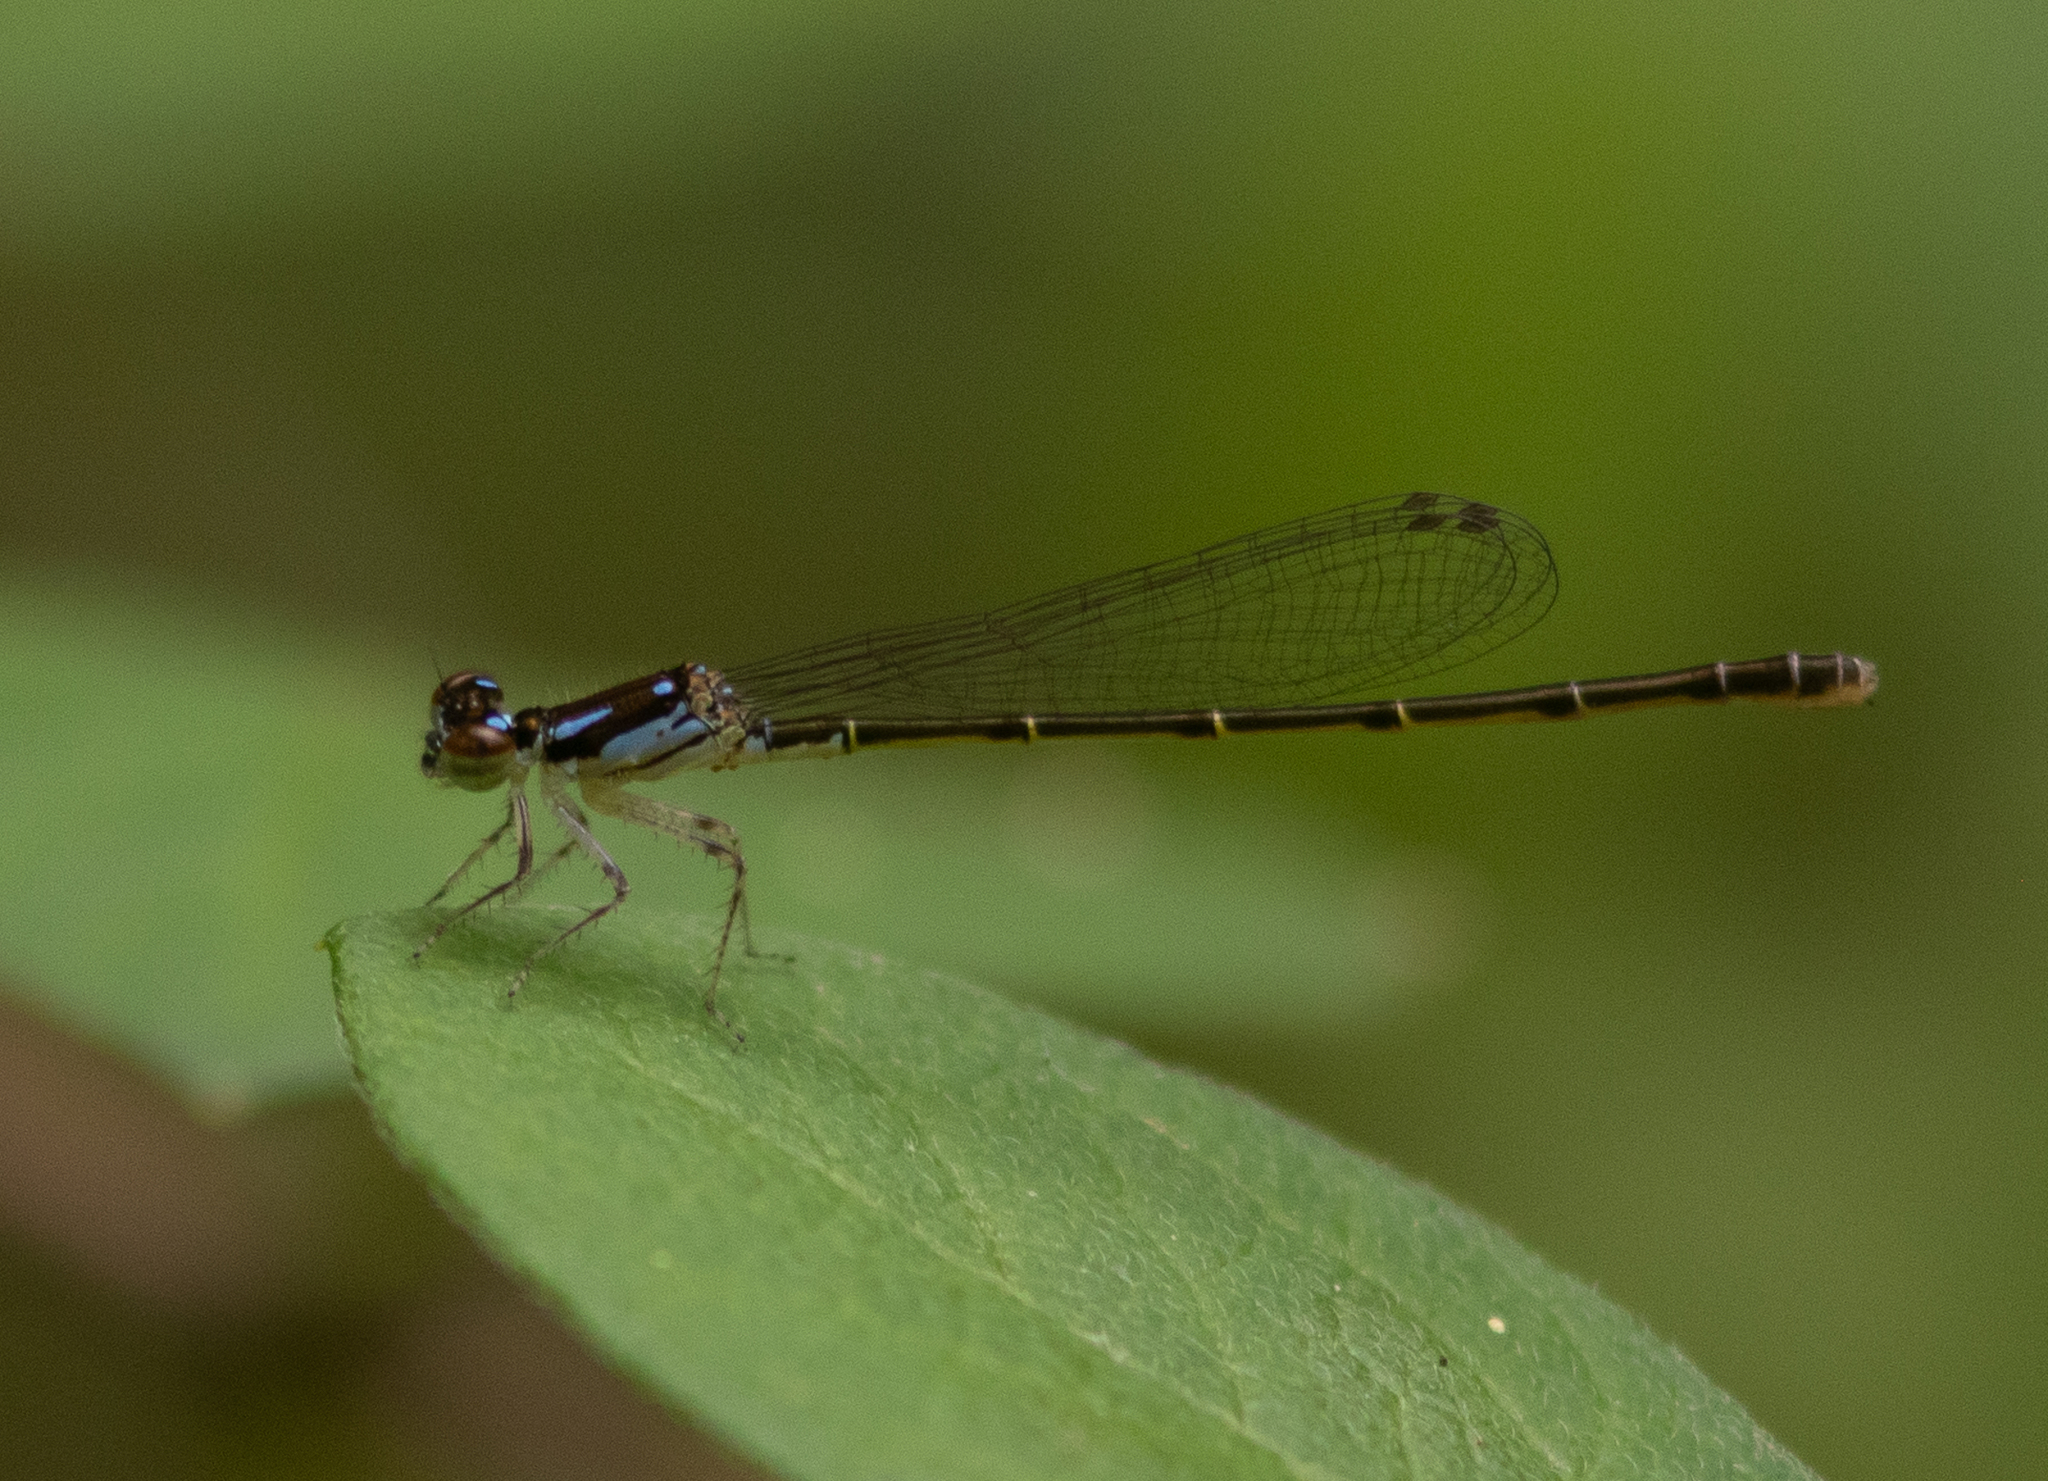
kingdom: Animalia
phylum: Arthropoda
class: Insecta
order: Odonata
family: Coenagrionidae
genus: Ischnura
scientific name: Ischnura posita
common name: Fragile forktail
